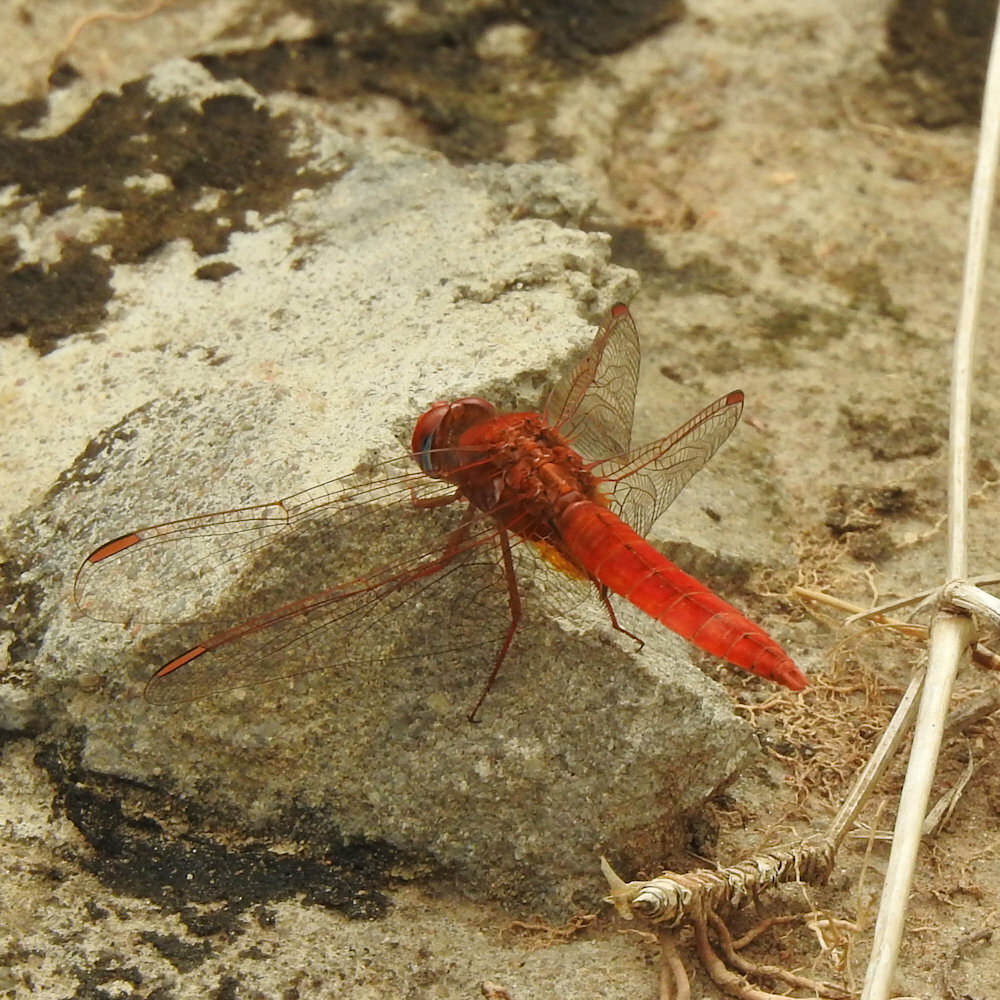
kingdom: Animalia
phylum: Arthropoda
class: Insecta
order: Odonata
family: Libellulidae
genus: Crocothemis
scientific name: Crocothemis erythraea
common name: Scarlet dragonfly
